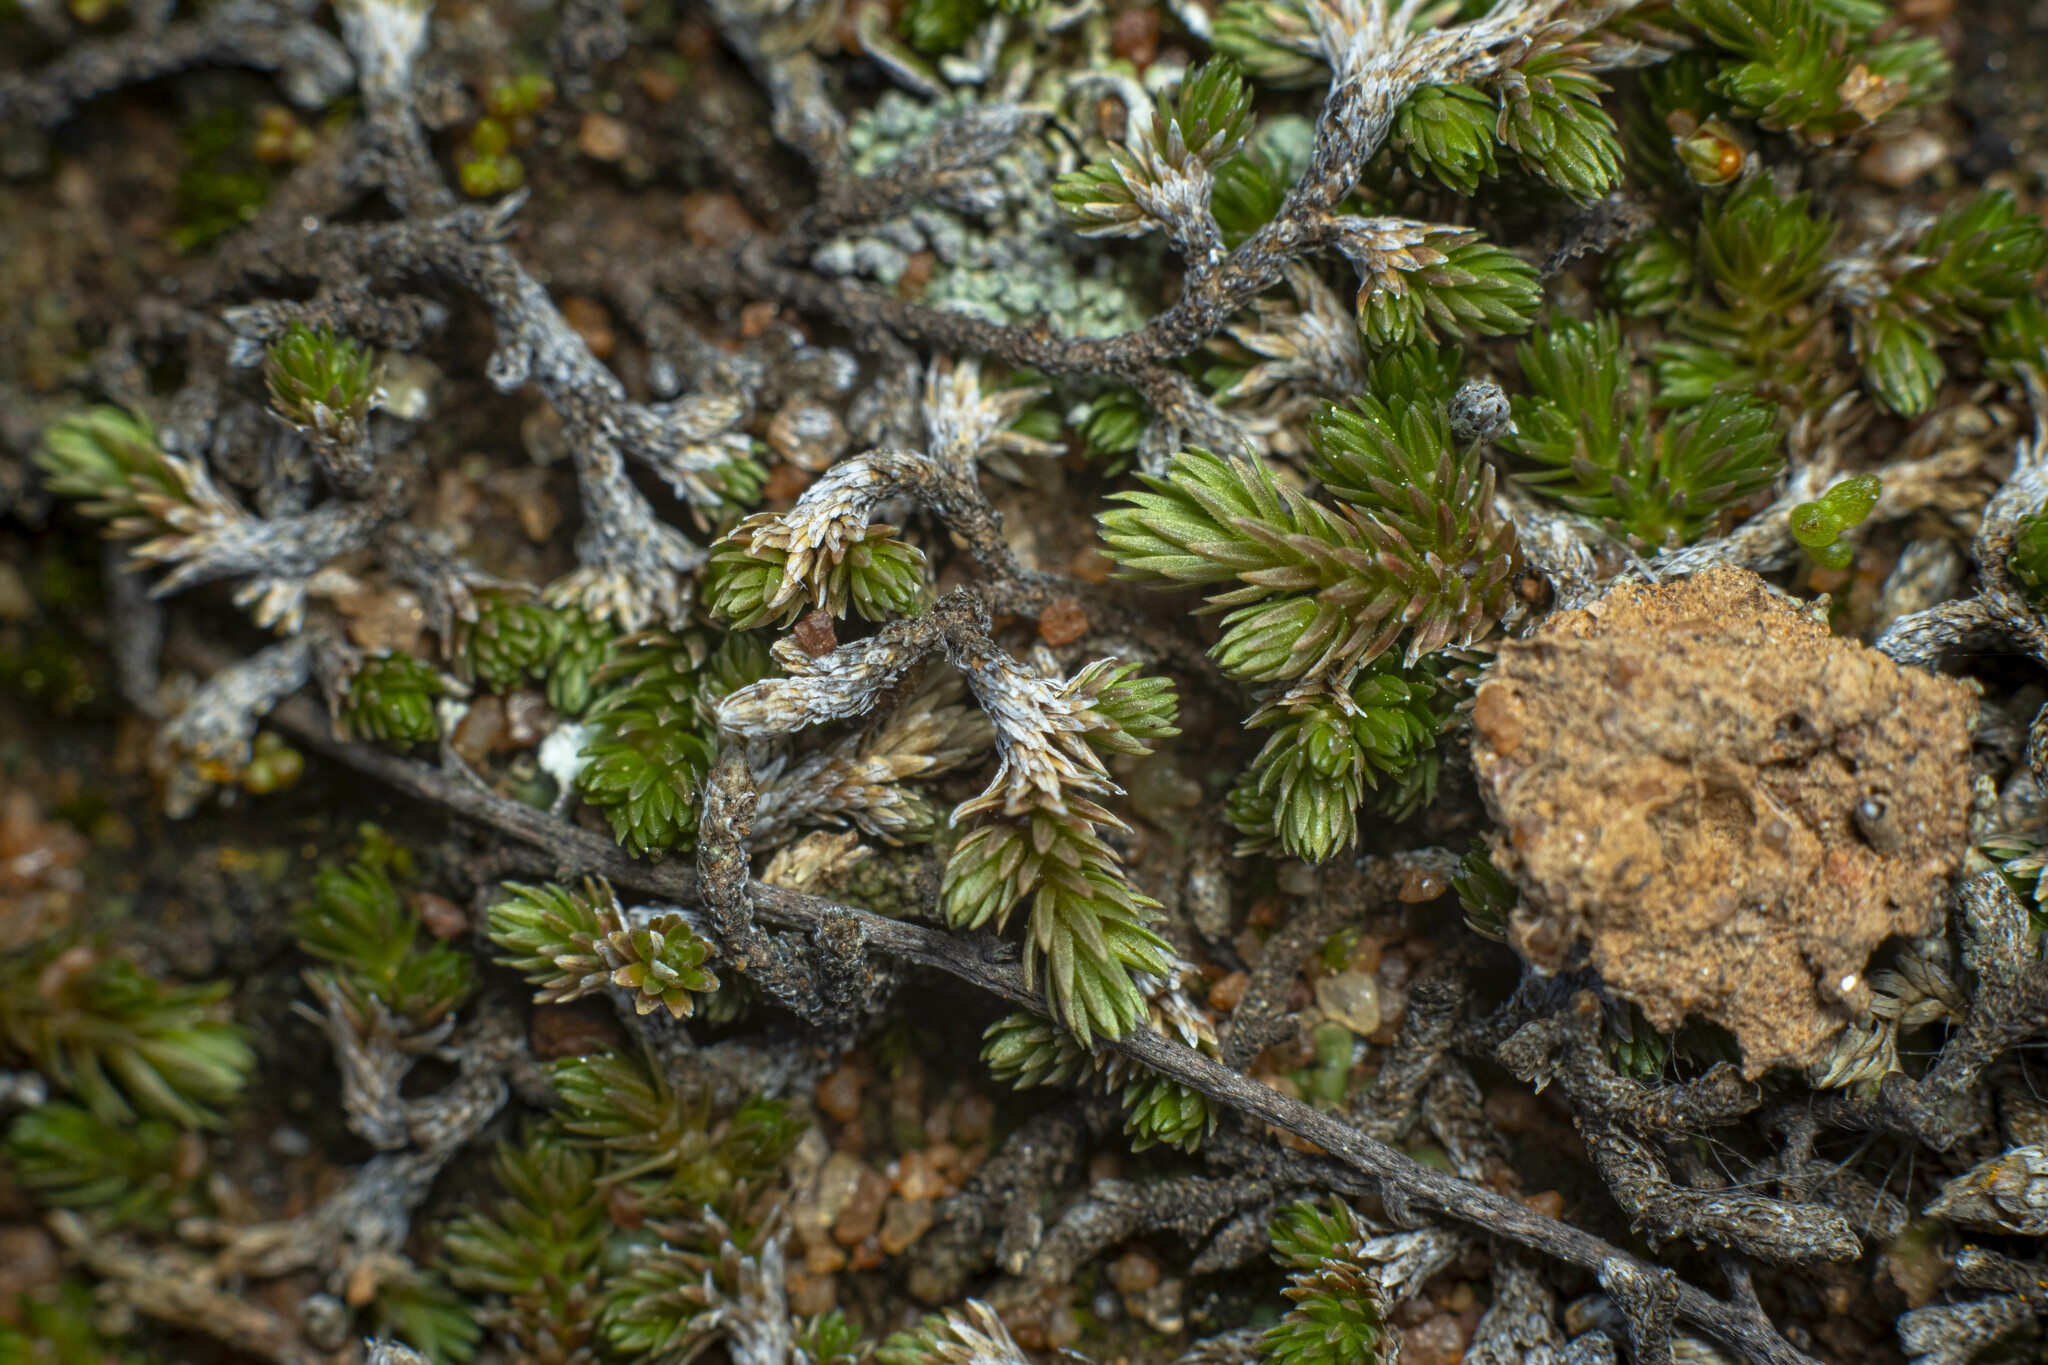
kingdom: Plantae
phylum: Tracheophyta
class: Lycopodiopsida
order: Selaginellales
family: Selaginellaceae
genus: Selaginella
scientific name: Selaginella cinerascens
